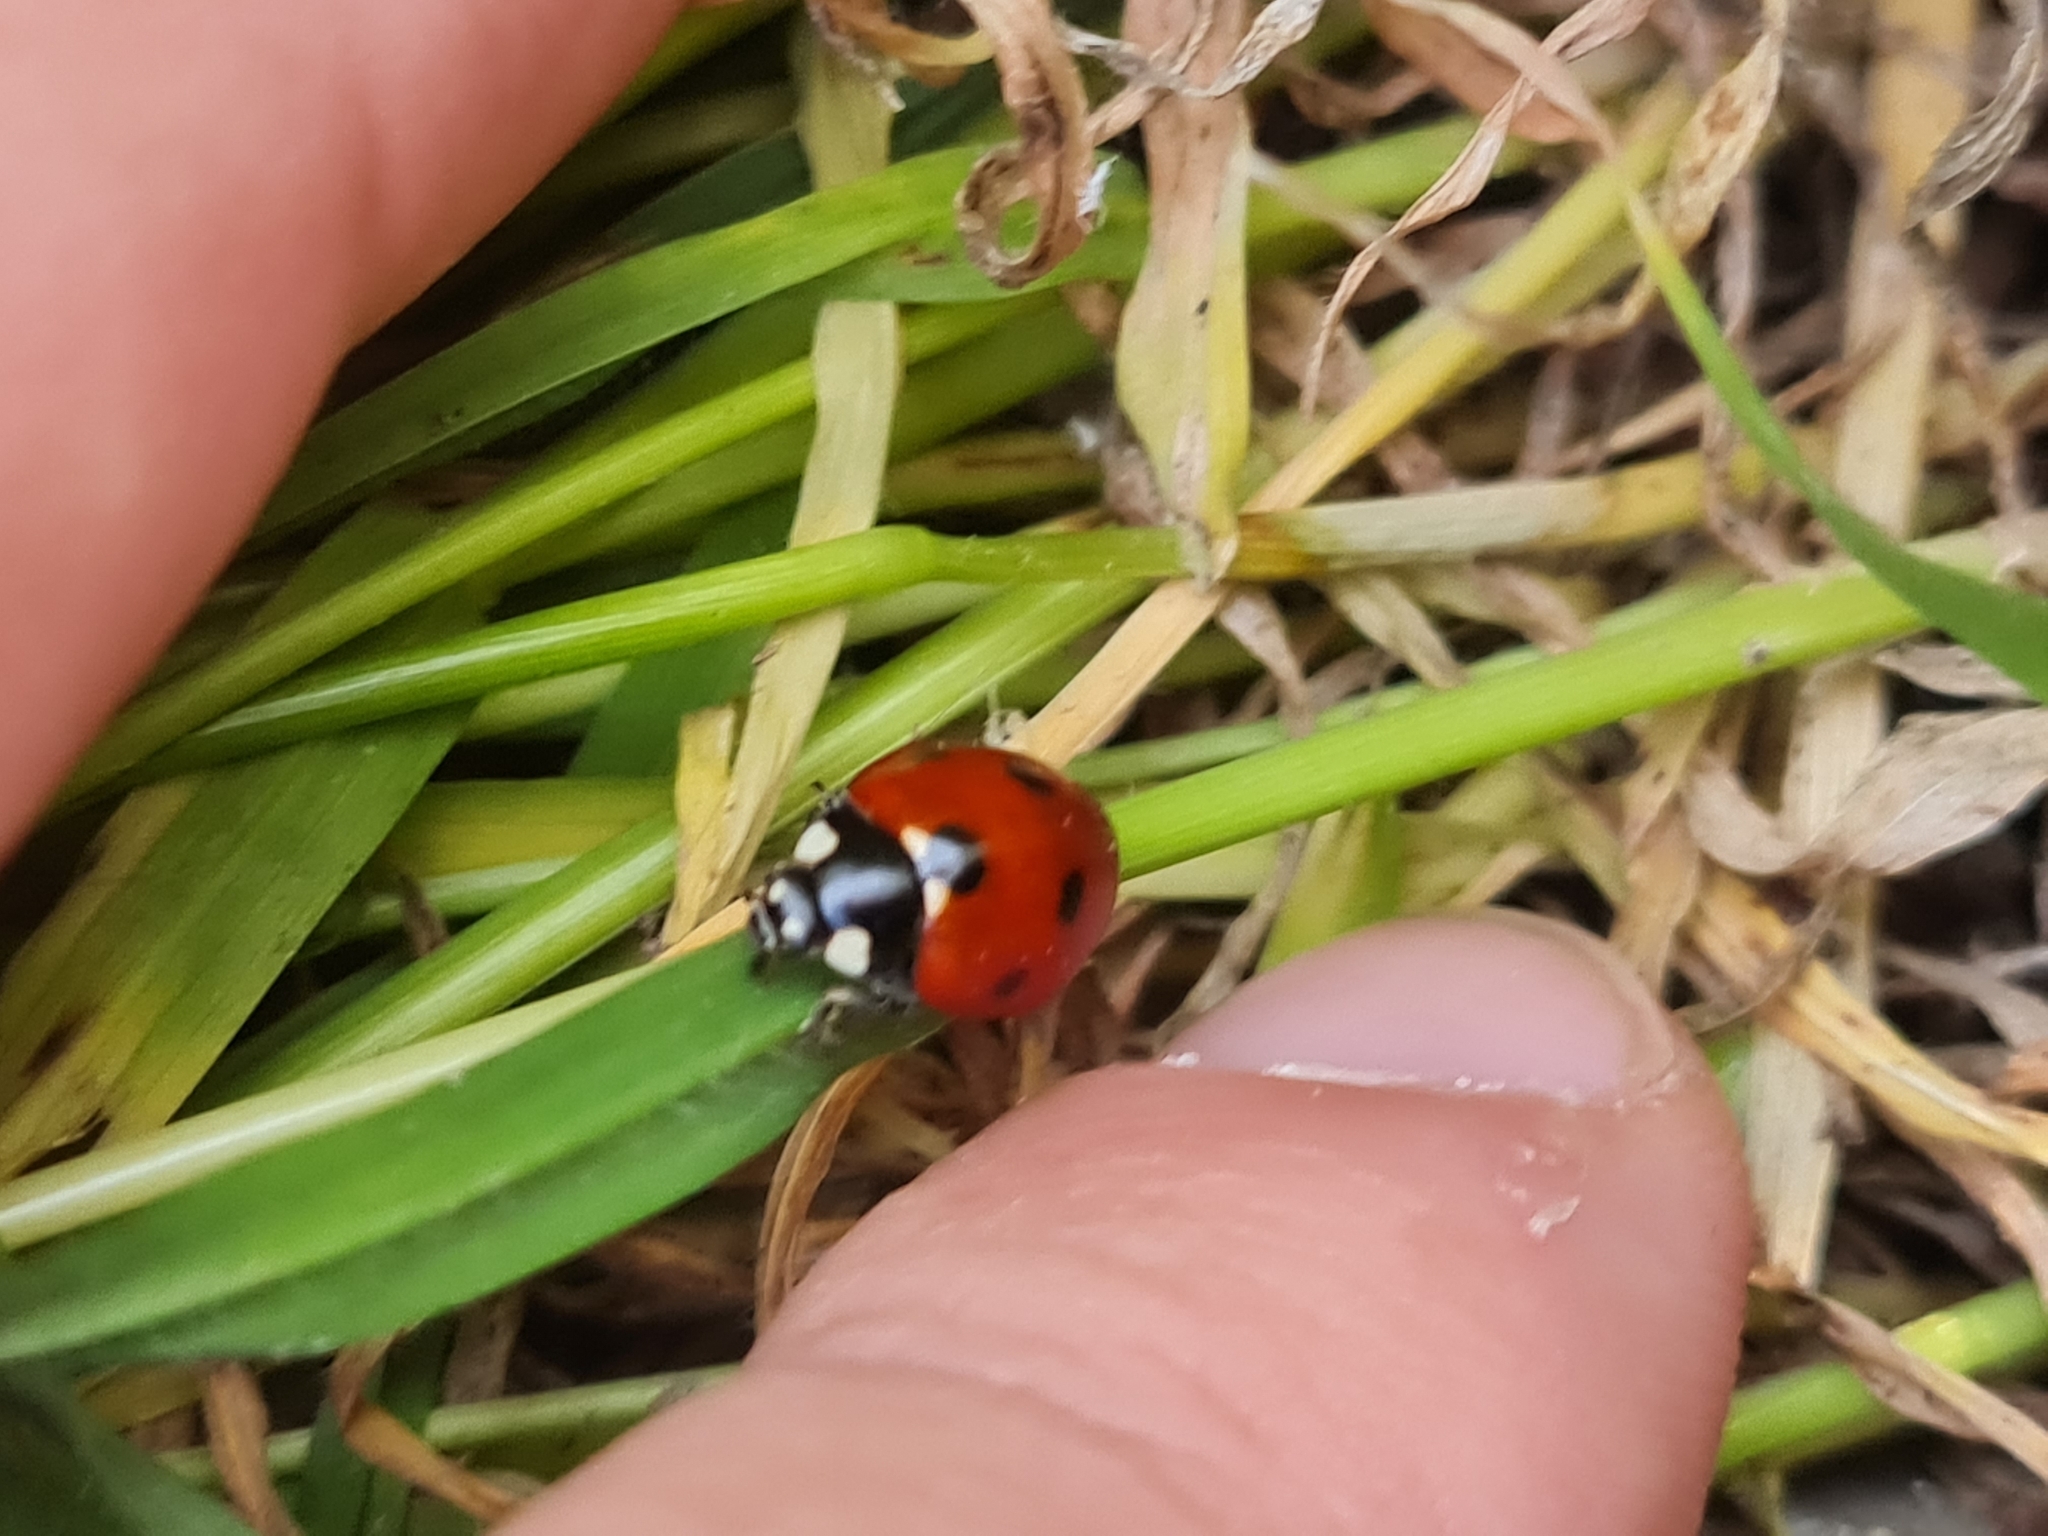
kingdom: Animalia
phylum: Arthropoda
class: Insecta
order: Coleoptera
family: Coccinellidae
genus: Coccinella
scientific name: Coccinella septempunctata
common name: Sevenspotted lady beetle
